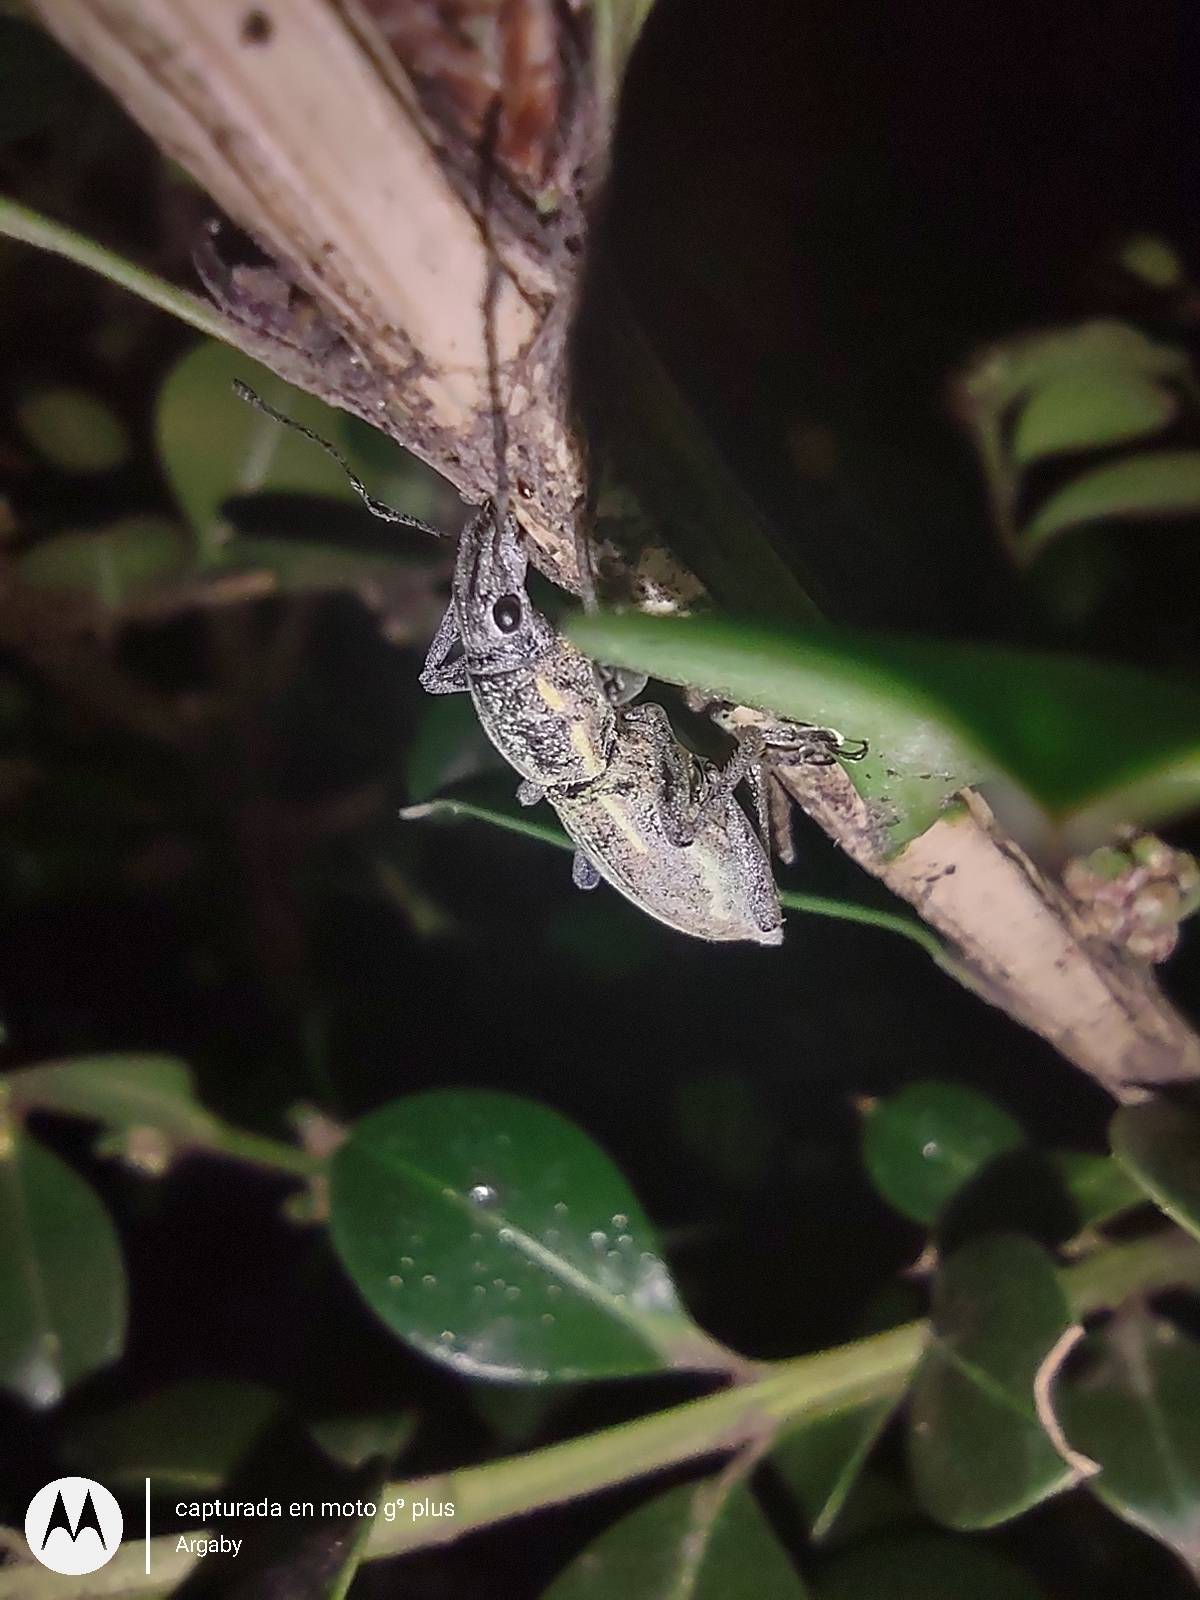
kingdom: Animalia
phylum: Arthropoda
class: Insecta
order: Coleoptera
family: Curculionidae
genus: Naupactus
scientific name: Naupactus xanthographus
